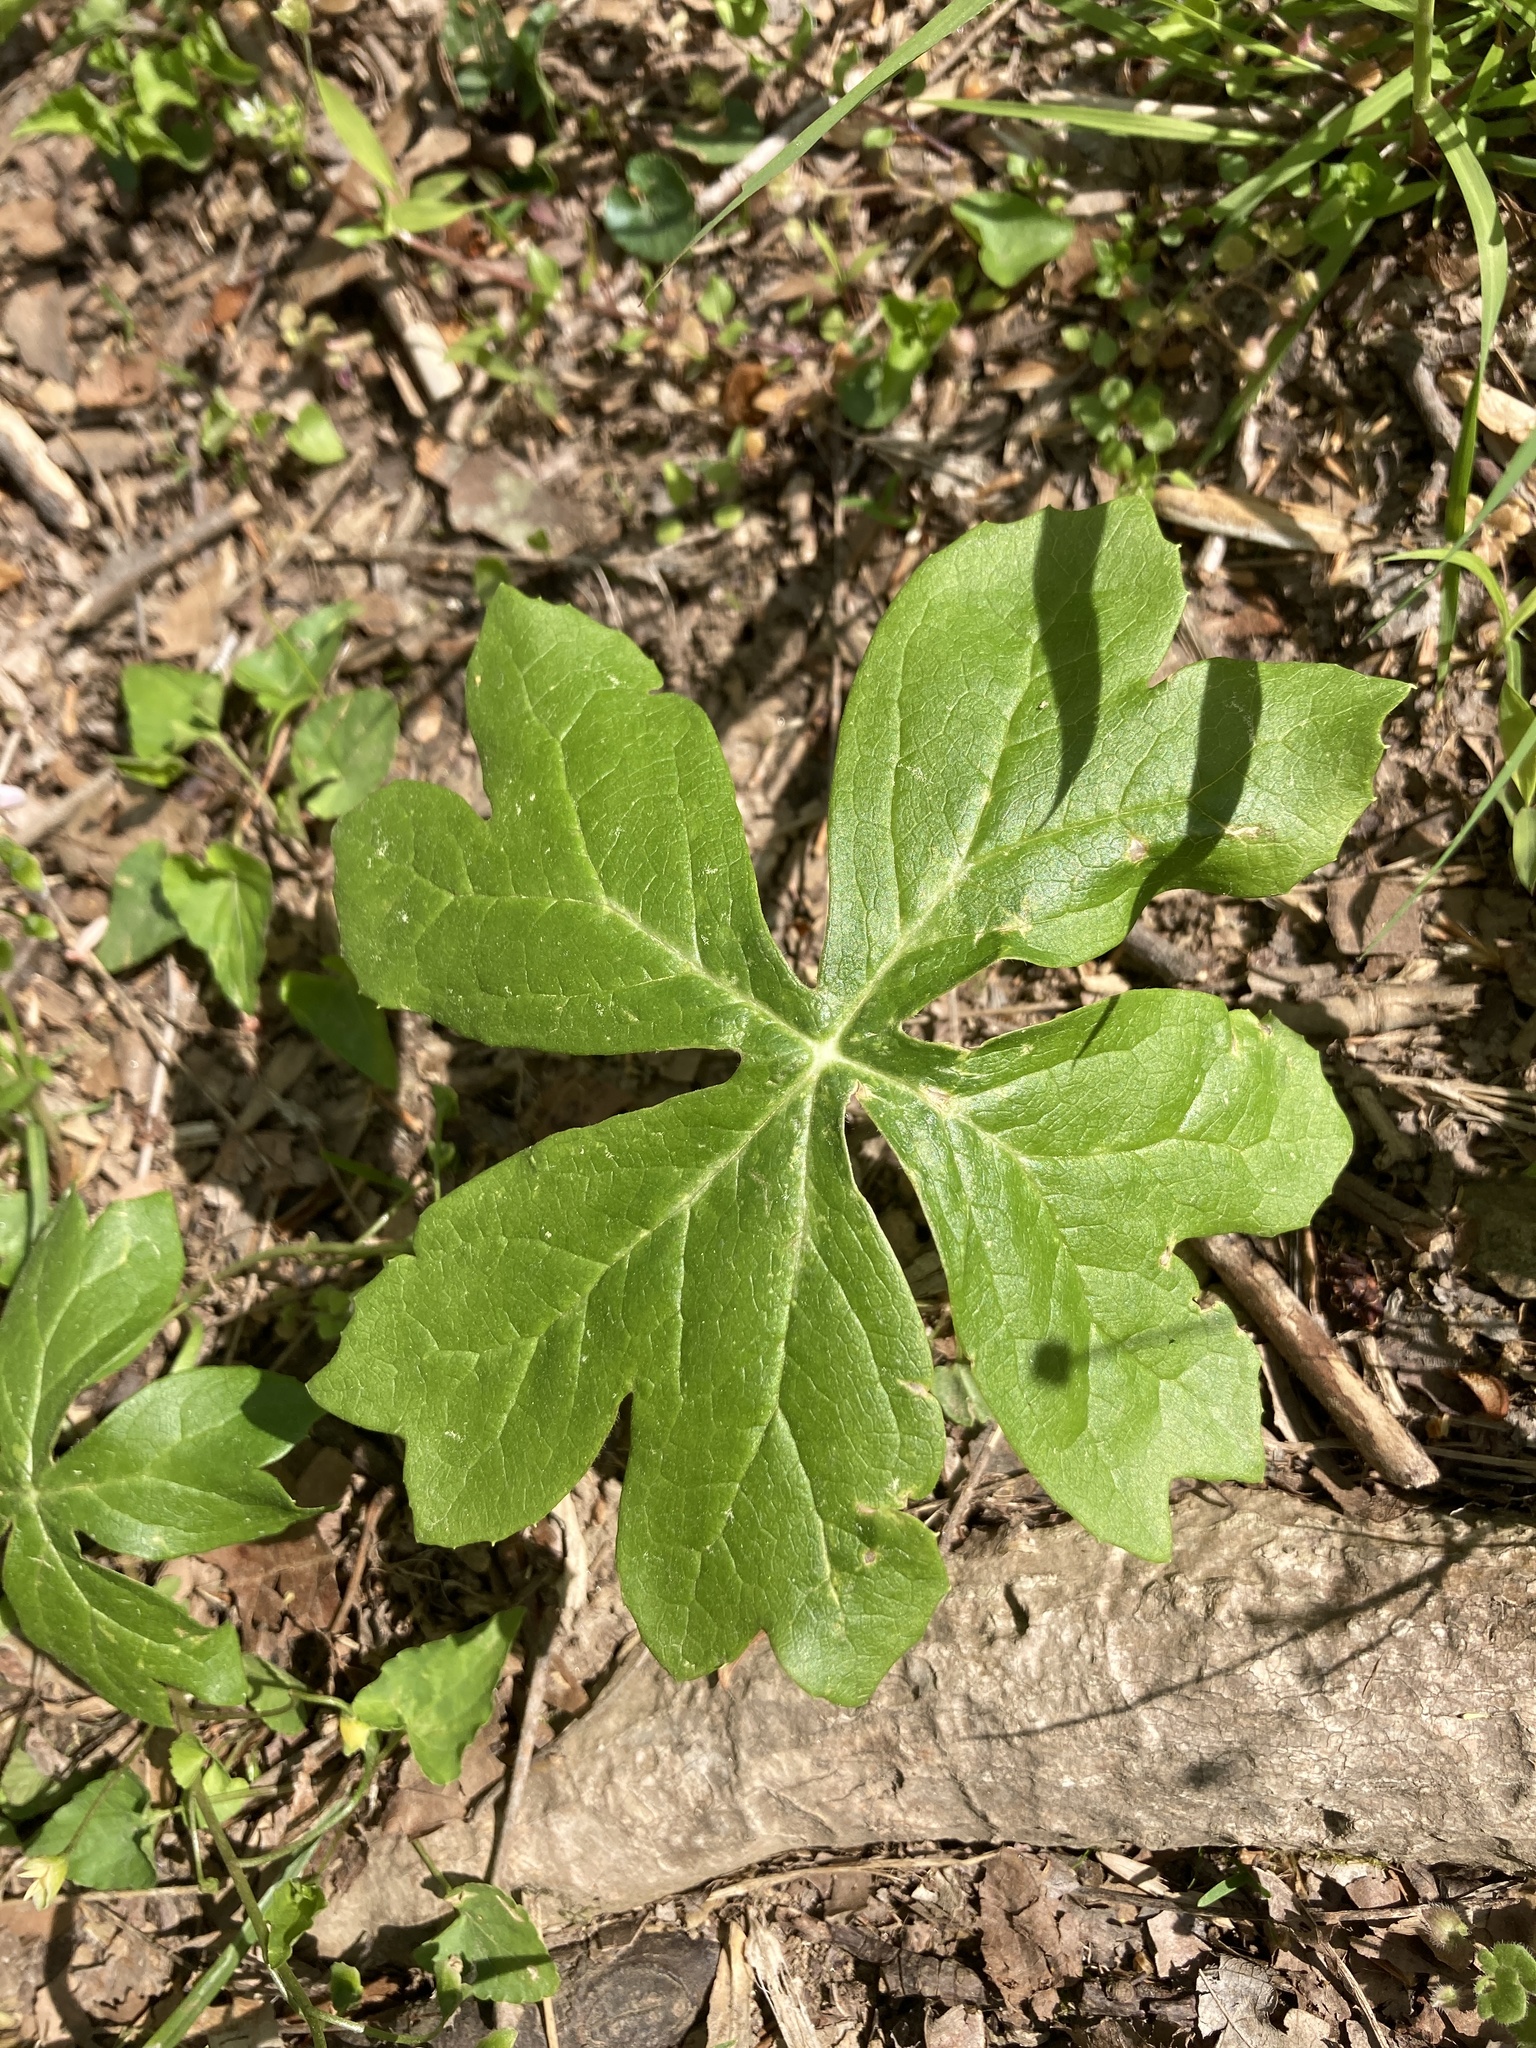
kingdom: Plantae
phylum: Tracheophyta
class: Magnoliopsida
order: Ranunculales
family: Berberidaceae
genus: Podophyllum
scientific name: Podophyllum peltatum
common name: Wild mandrake
